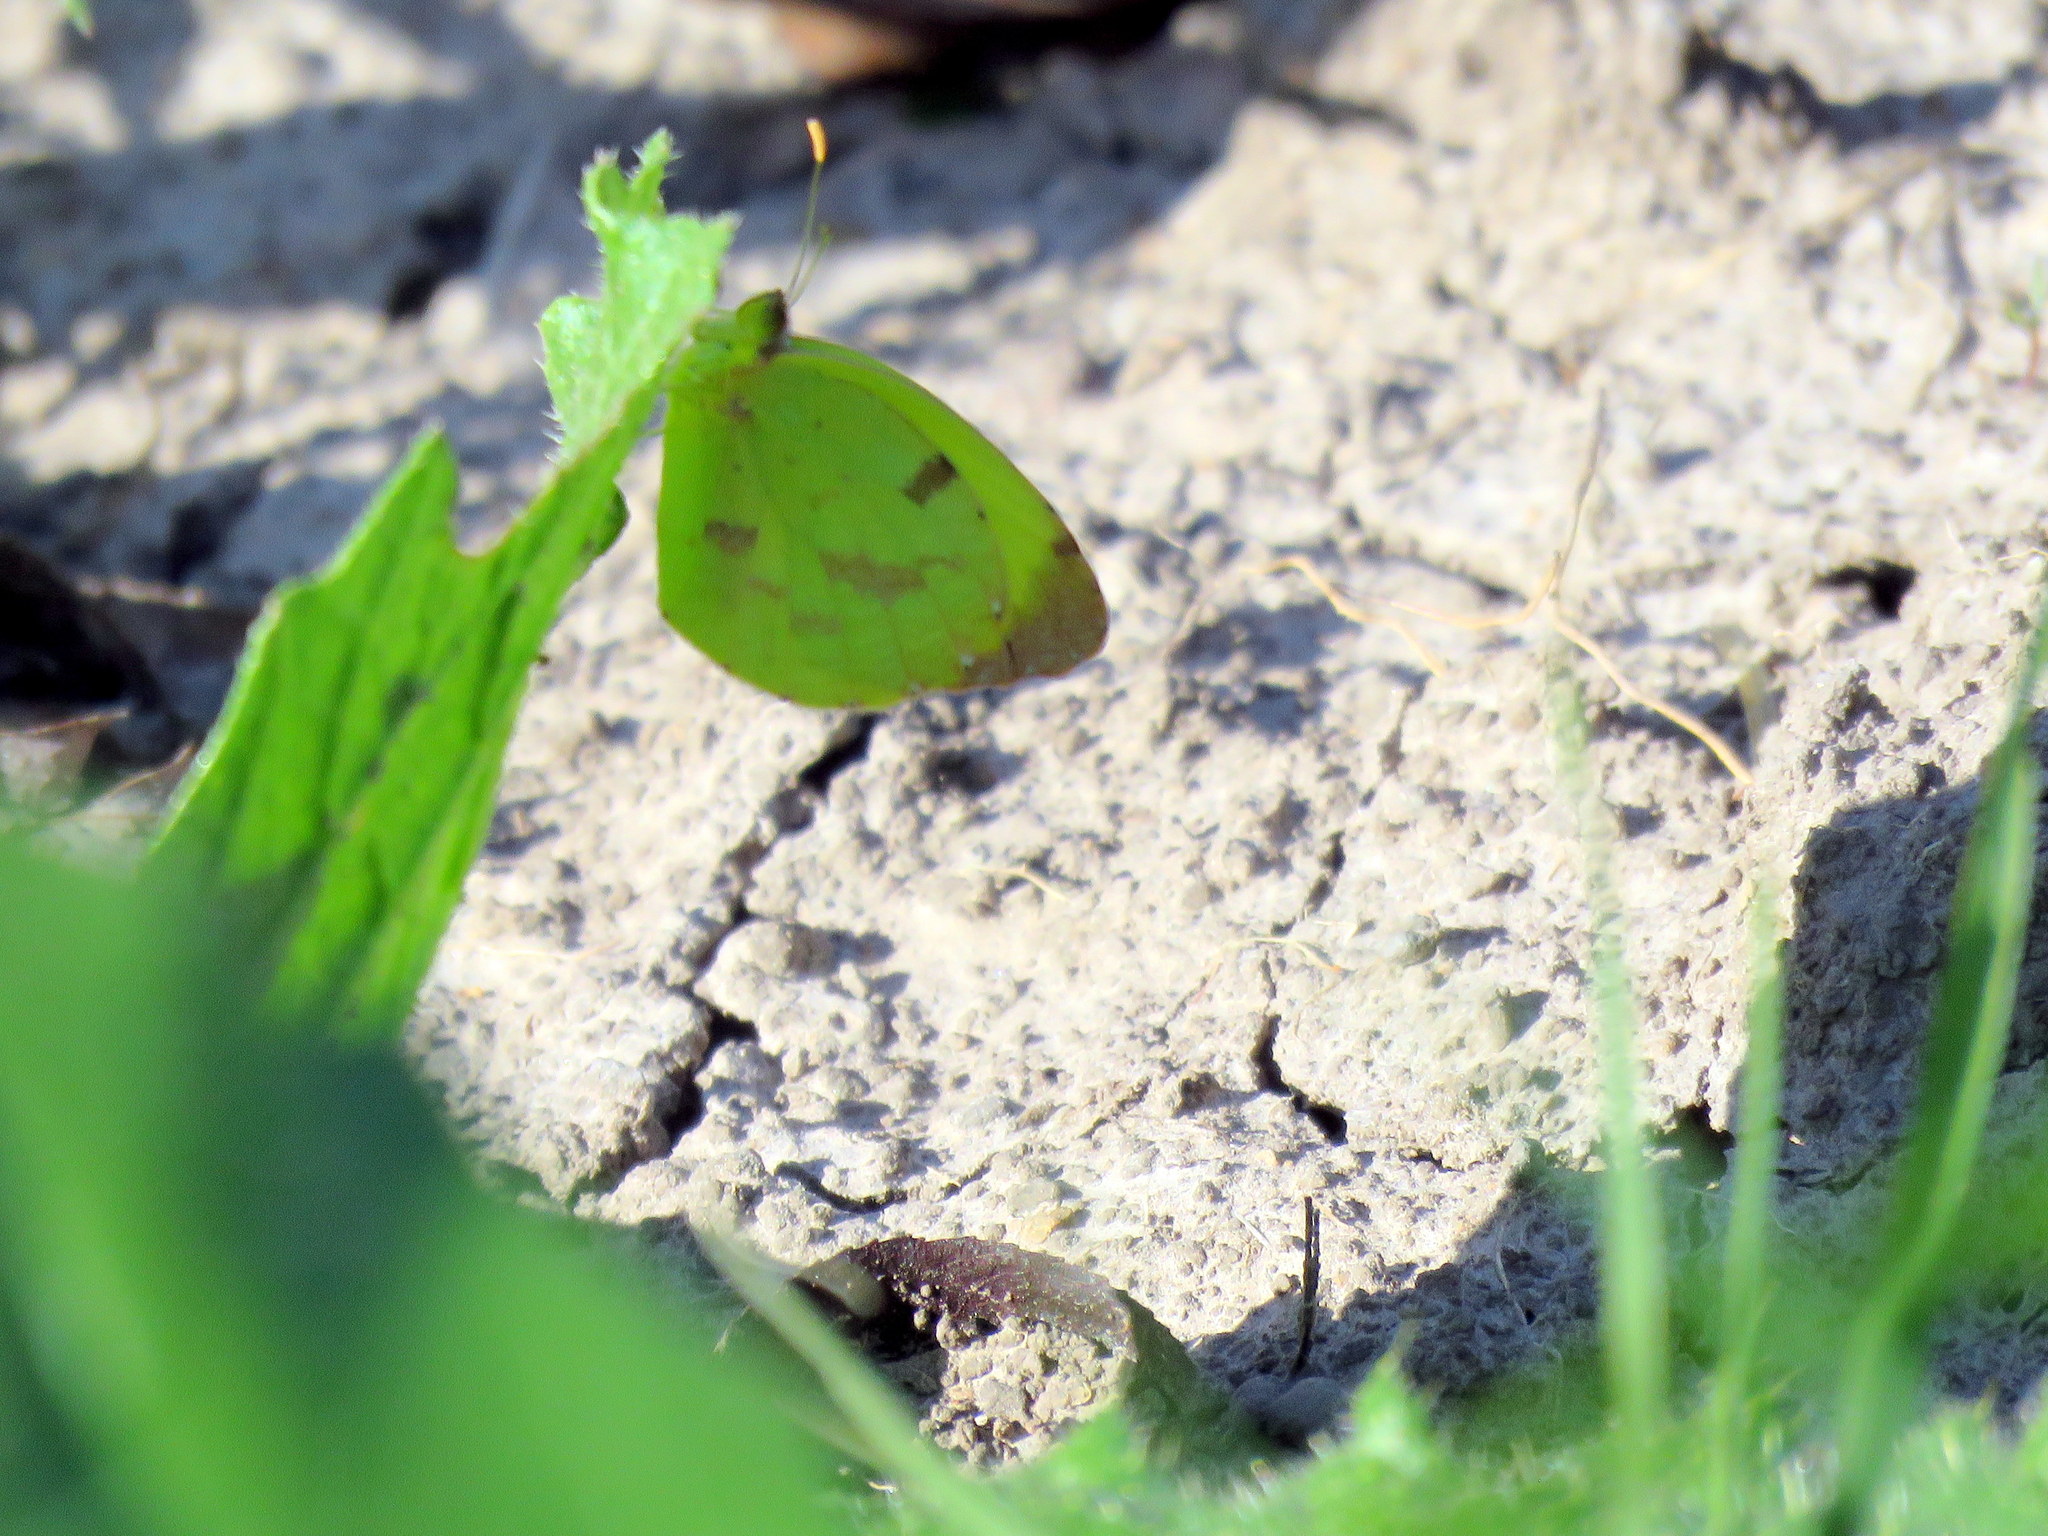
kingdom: Animalia
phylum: Arthropoda
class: Insecta
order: Lepidoptera
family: Pieridae
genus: Teriocolias
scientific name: Teriocolias
